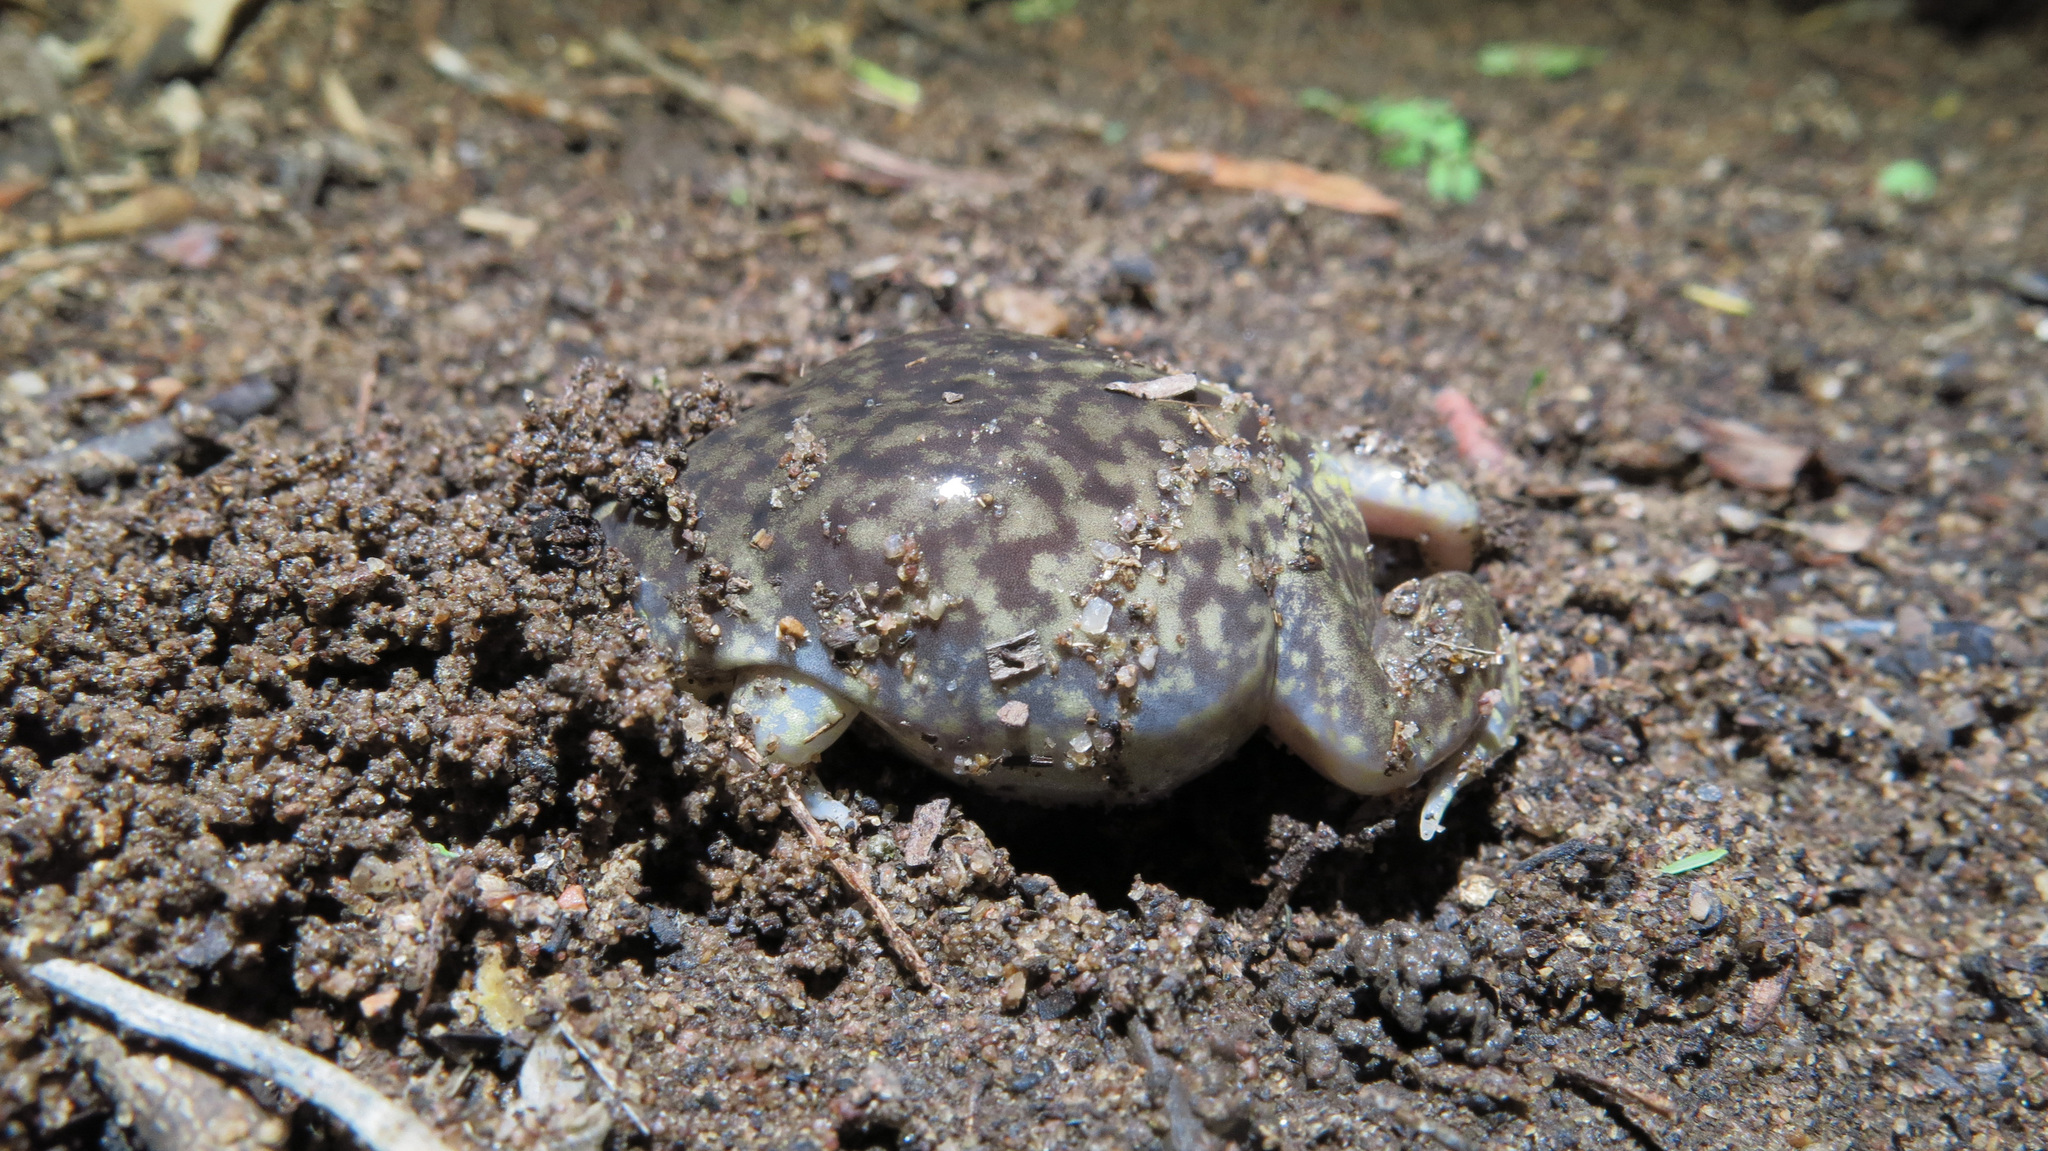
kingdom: Animalia
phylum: Chordata
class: Amphibia
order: Anura
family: Hemisotidae
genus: Hemisus
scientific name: Hemisus marmoratus
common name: Mottled shovel-nosed frog
